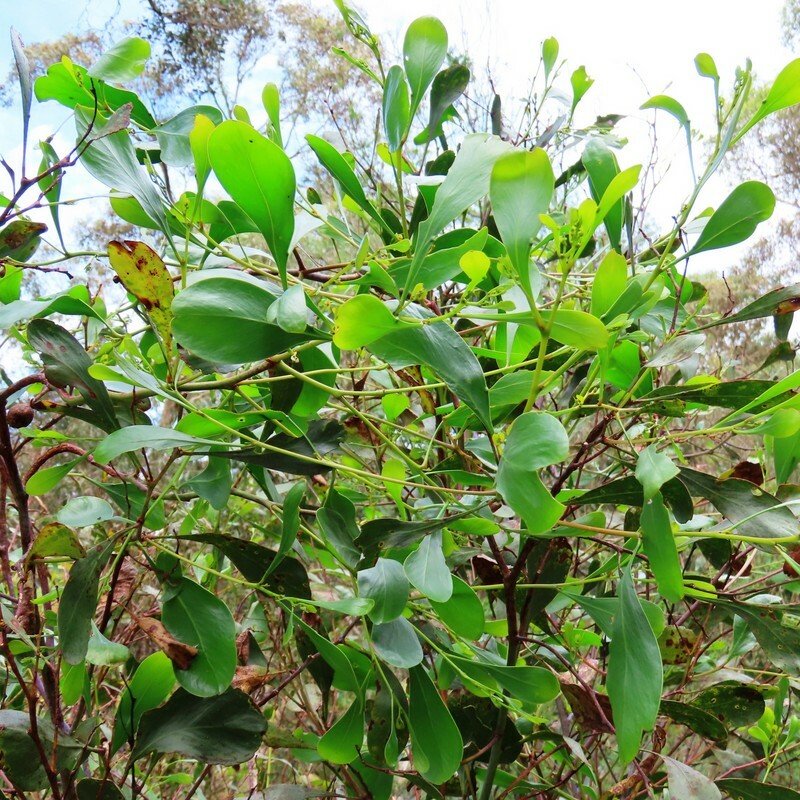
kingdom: Plantae
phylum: Tracheophyta
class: Magnoliopsida
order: Fabales
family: Fabaceae
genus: Acacia
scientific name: Acacia pycnantha
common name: Golden wattle
